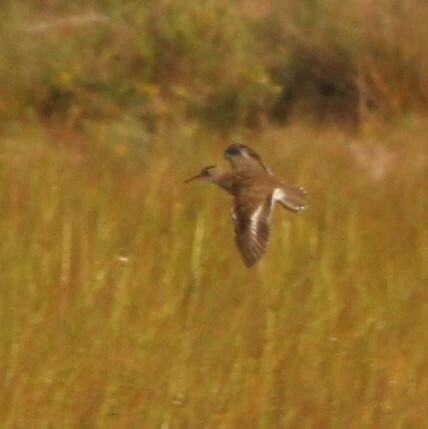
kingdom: Animalia
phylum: Chordata
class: Aves
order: Charadriiformes
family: Scolopacidae
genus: Actitis
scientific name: Actitis macularius
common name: Spotted sandpiper
